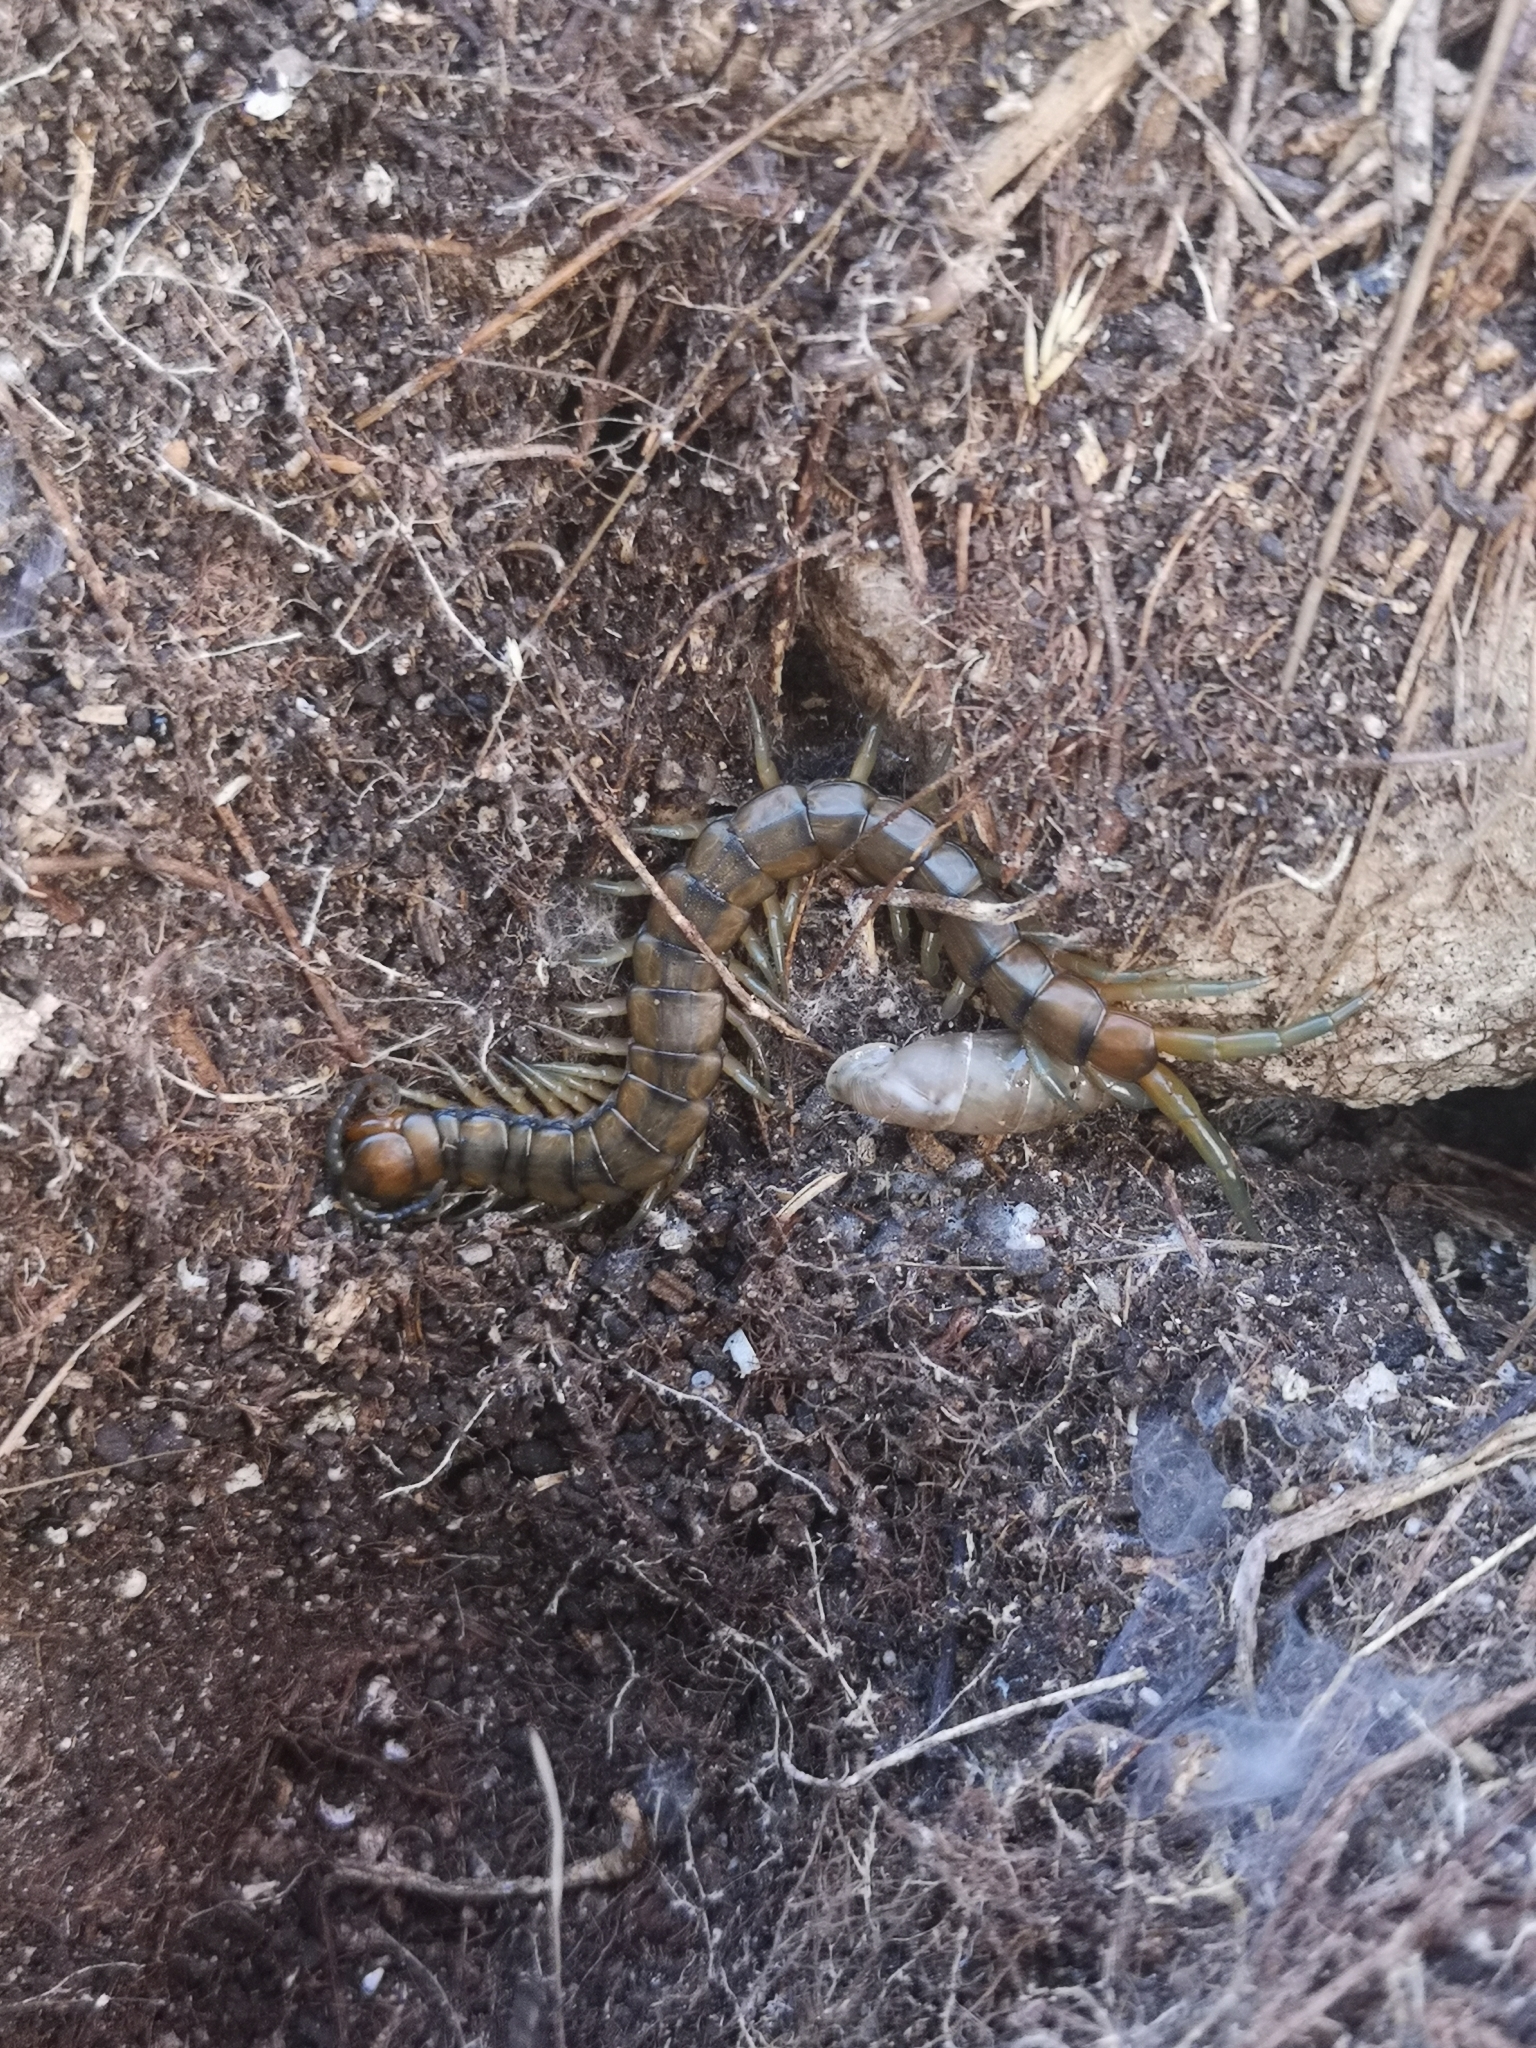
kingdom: Animalia
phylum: Arthropoda
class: Chilopoda
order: Scolopendromorpha
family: Scolopendridae
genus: Scolopendra
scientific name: Scolopendra cingulata
